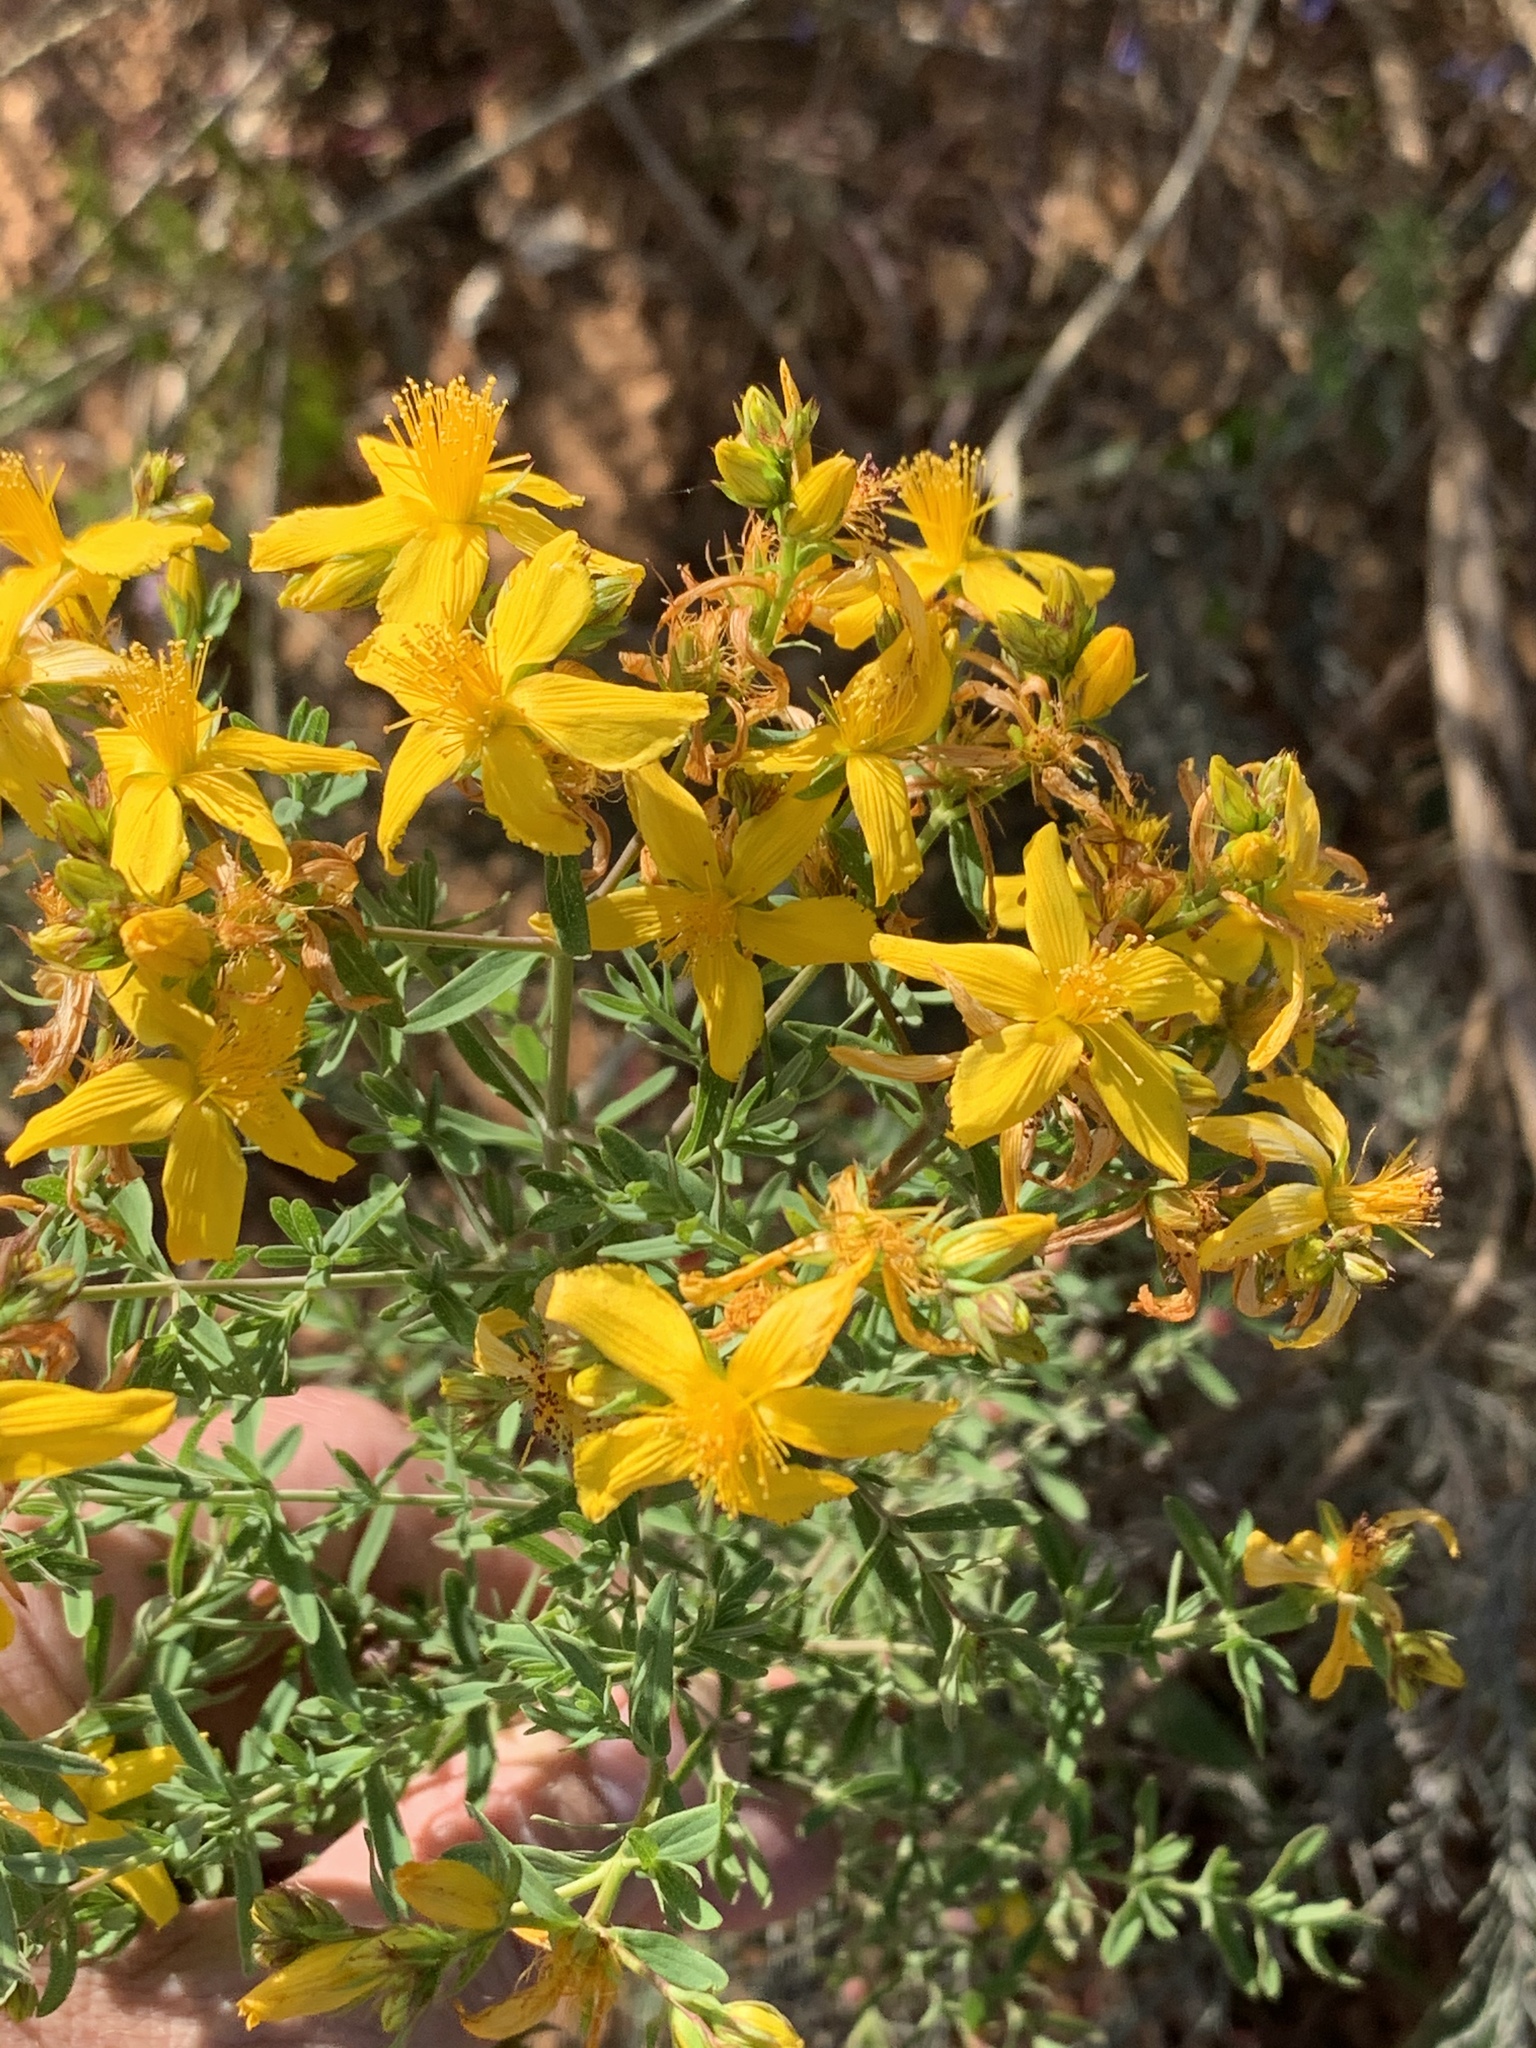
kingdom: Plantae
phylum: Tracheophyta
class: Magnoliopsida
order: Malpighiales
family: Hypericaceae
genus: Hypericum
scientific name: Hypericum perforatum
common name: Common st. johnswort
